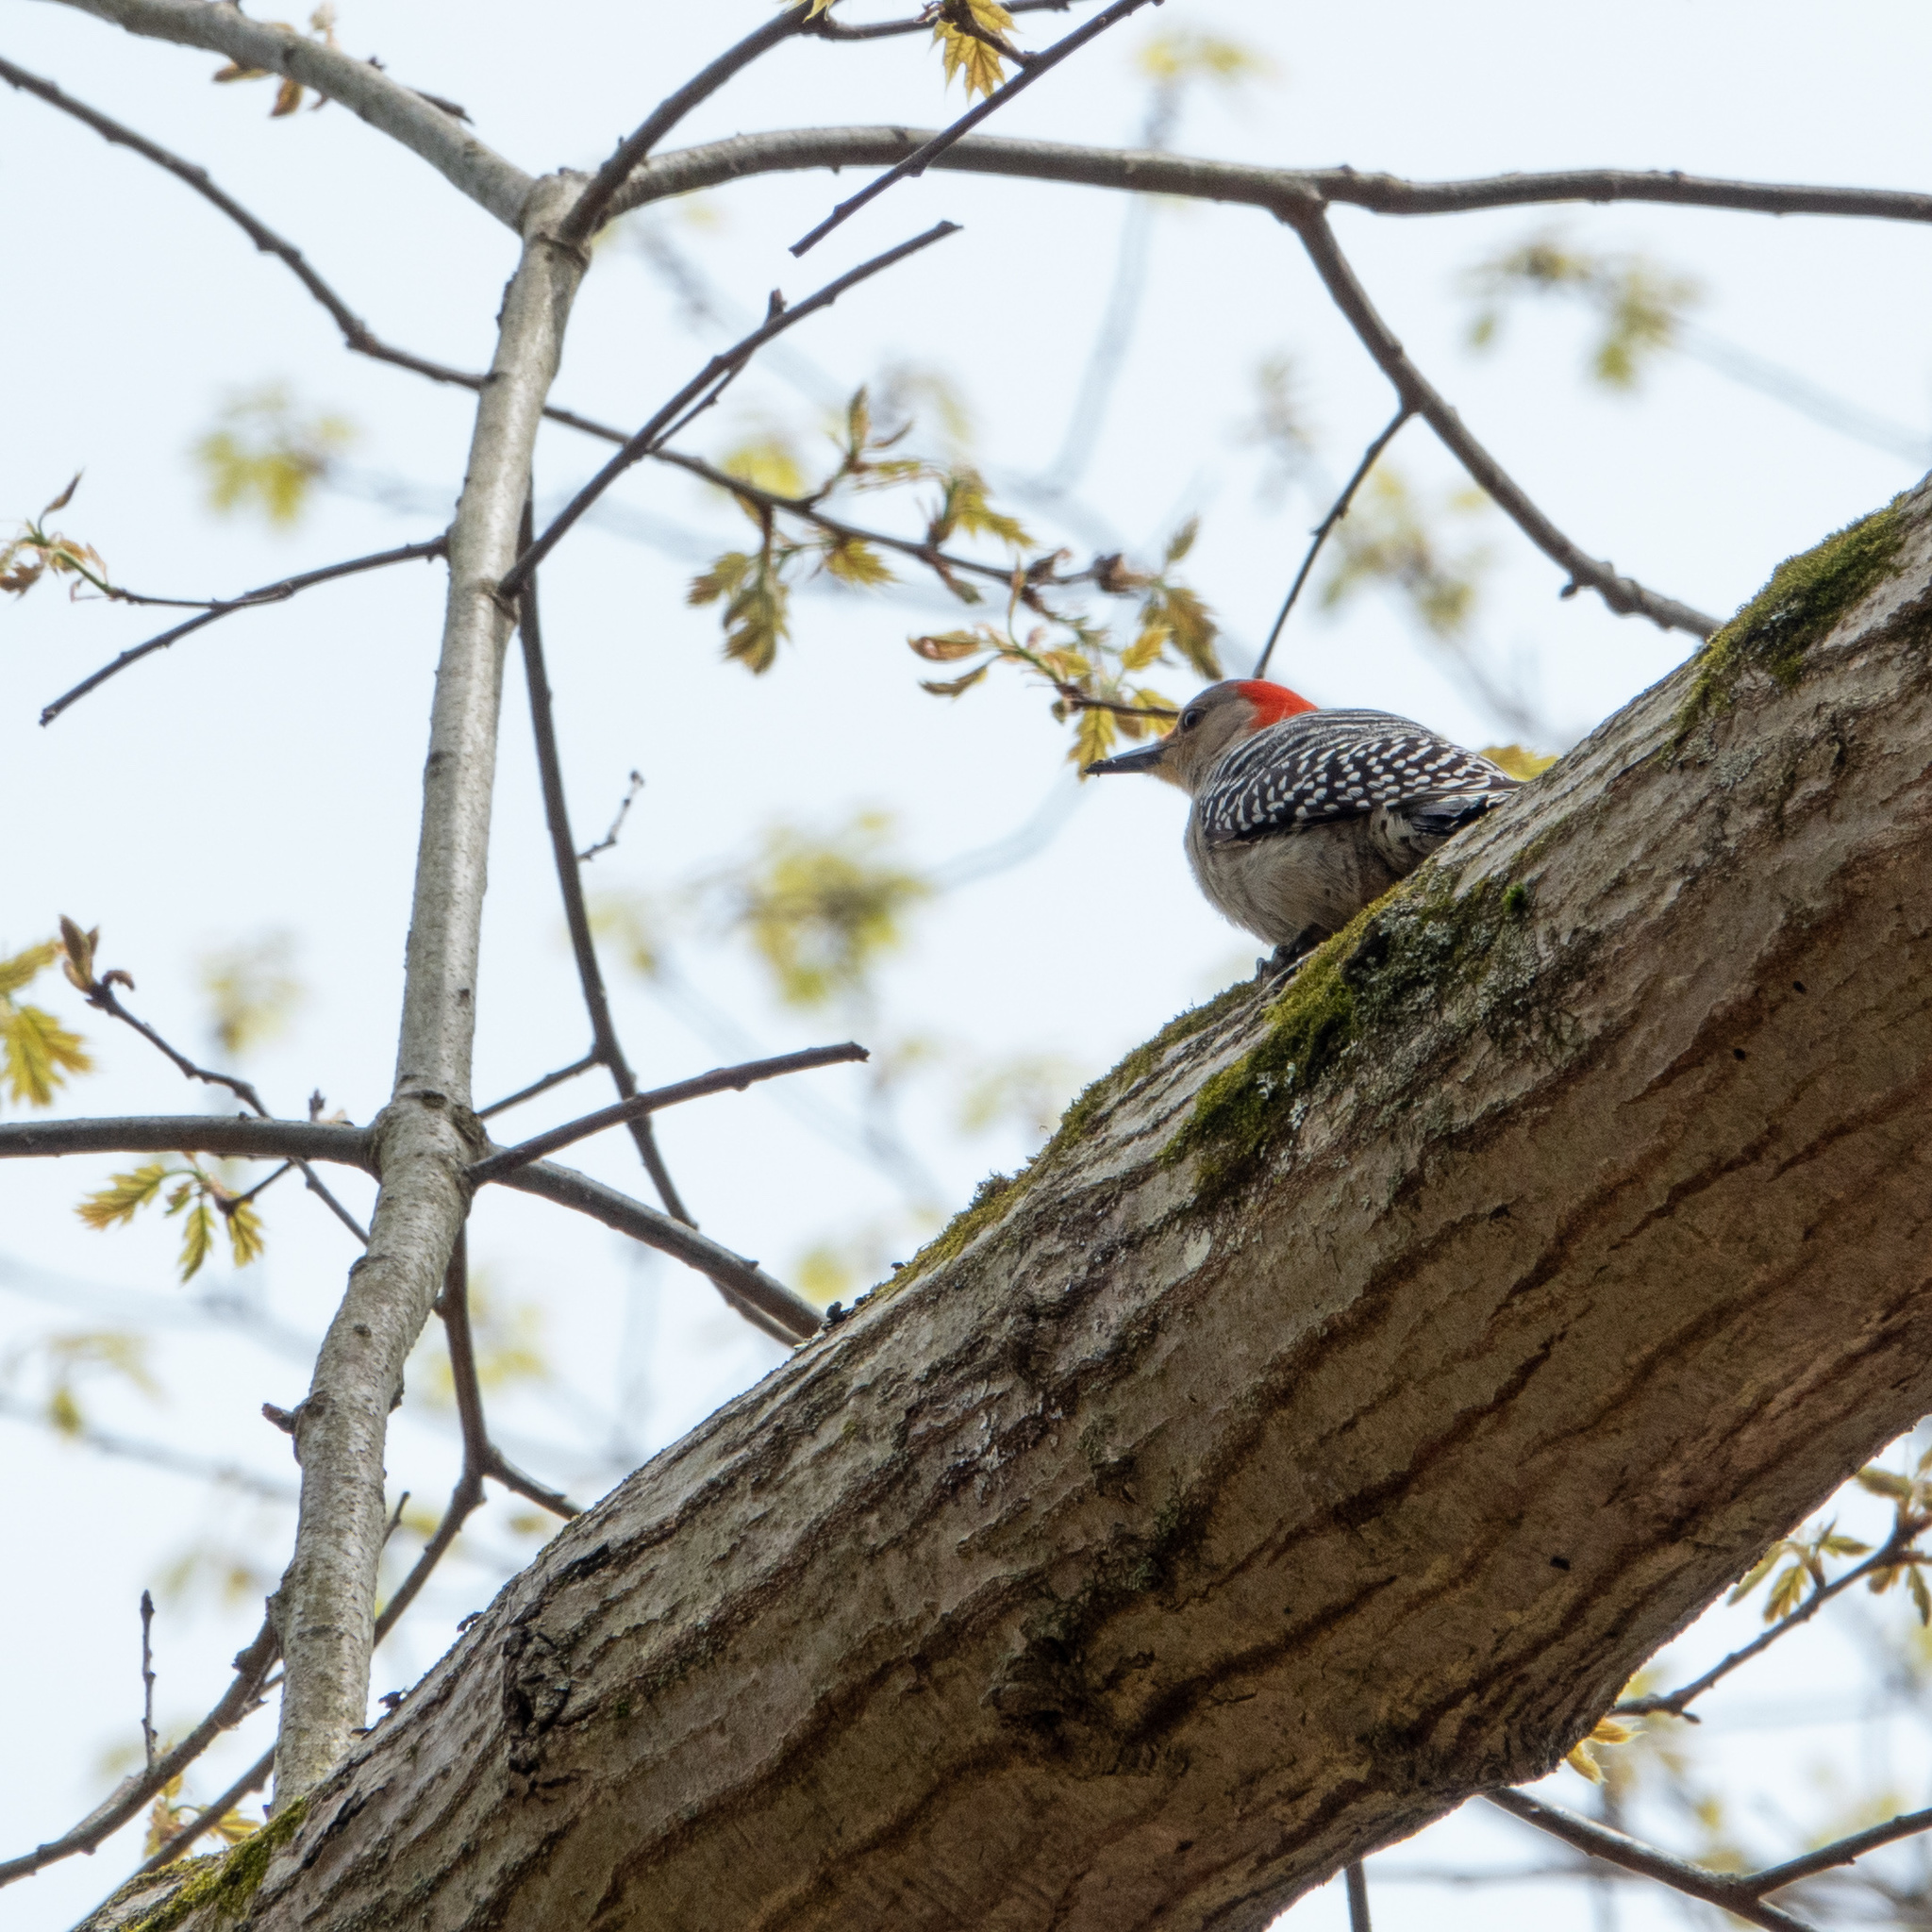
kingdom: Animalia
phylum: Chordata
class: Aves
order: Piciformes
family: Picidae
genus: Melanerpes
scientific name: Melanerpes carolinus
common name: Red-bellied woodpecker
